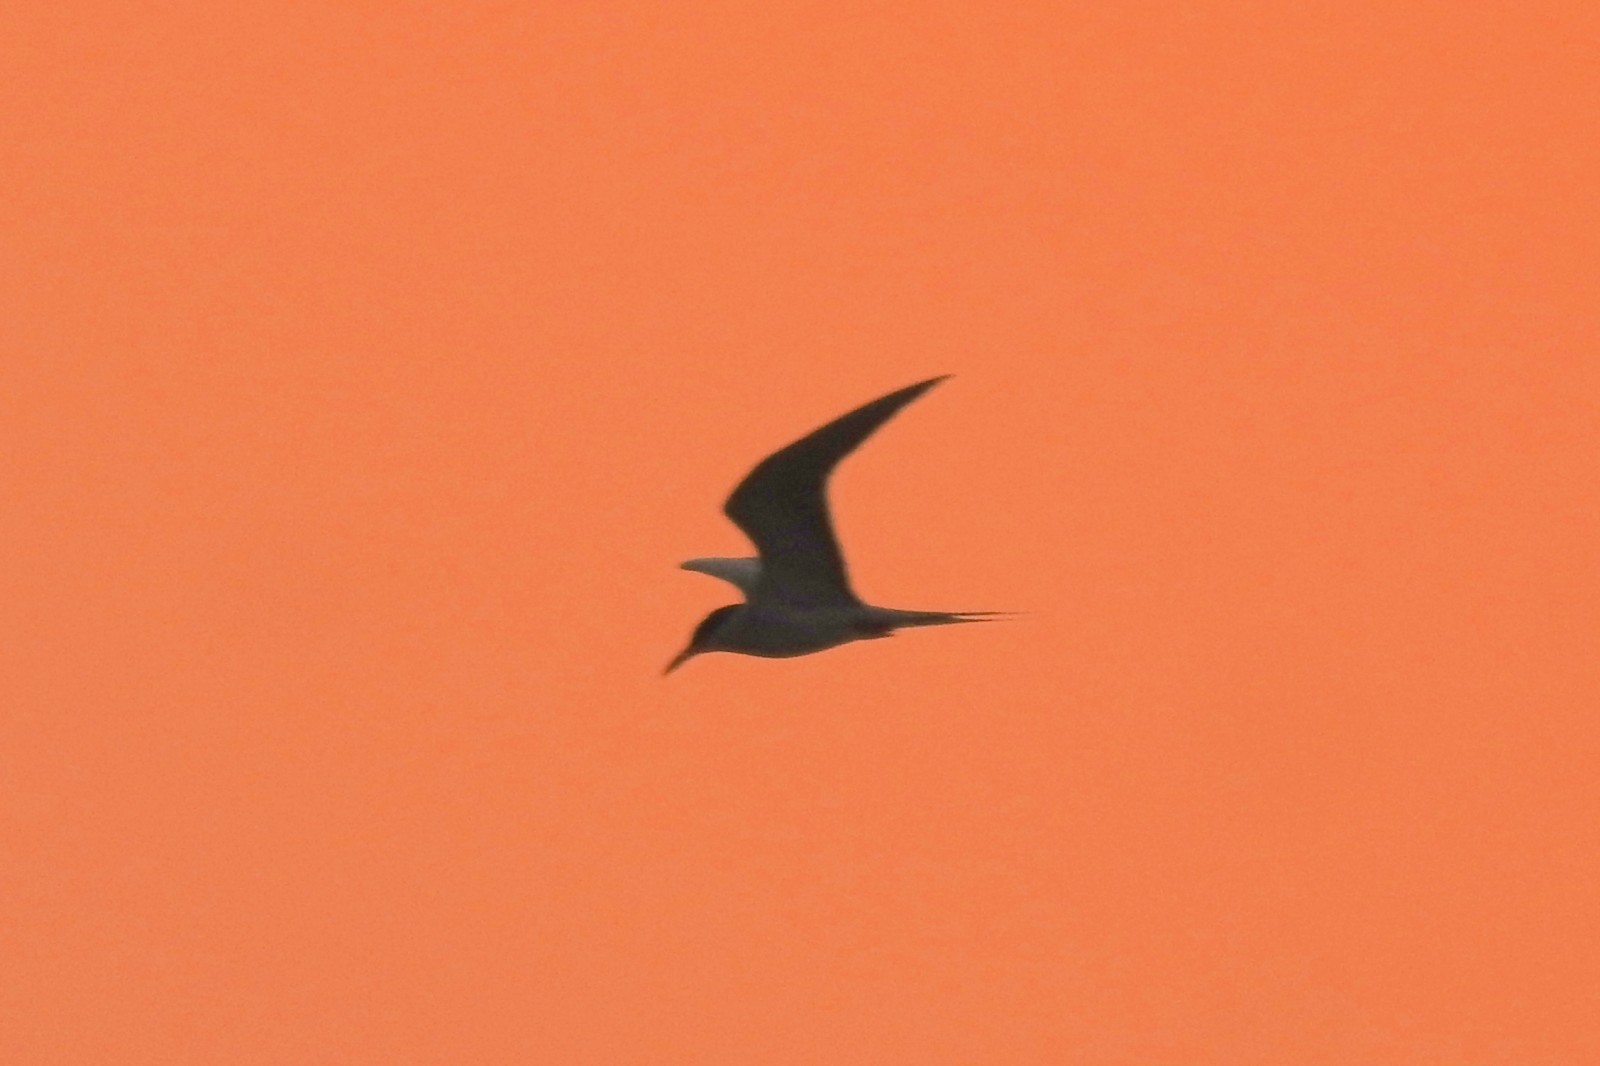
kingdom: Animalia
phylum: Chordata
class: Aves
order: Charadriiformes
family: Laridae
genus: Sterna
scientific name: Sterna aurantia
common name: River tern
